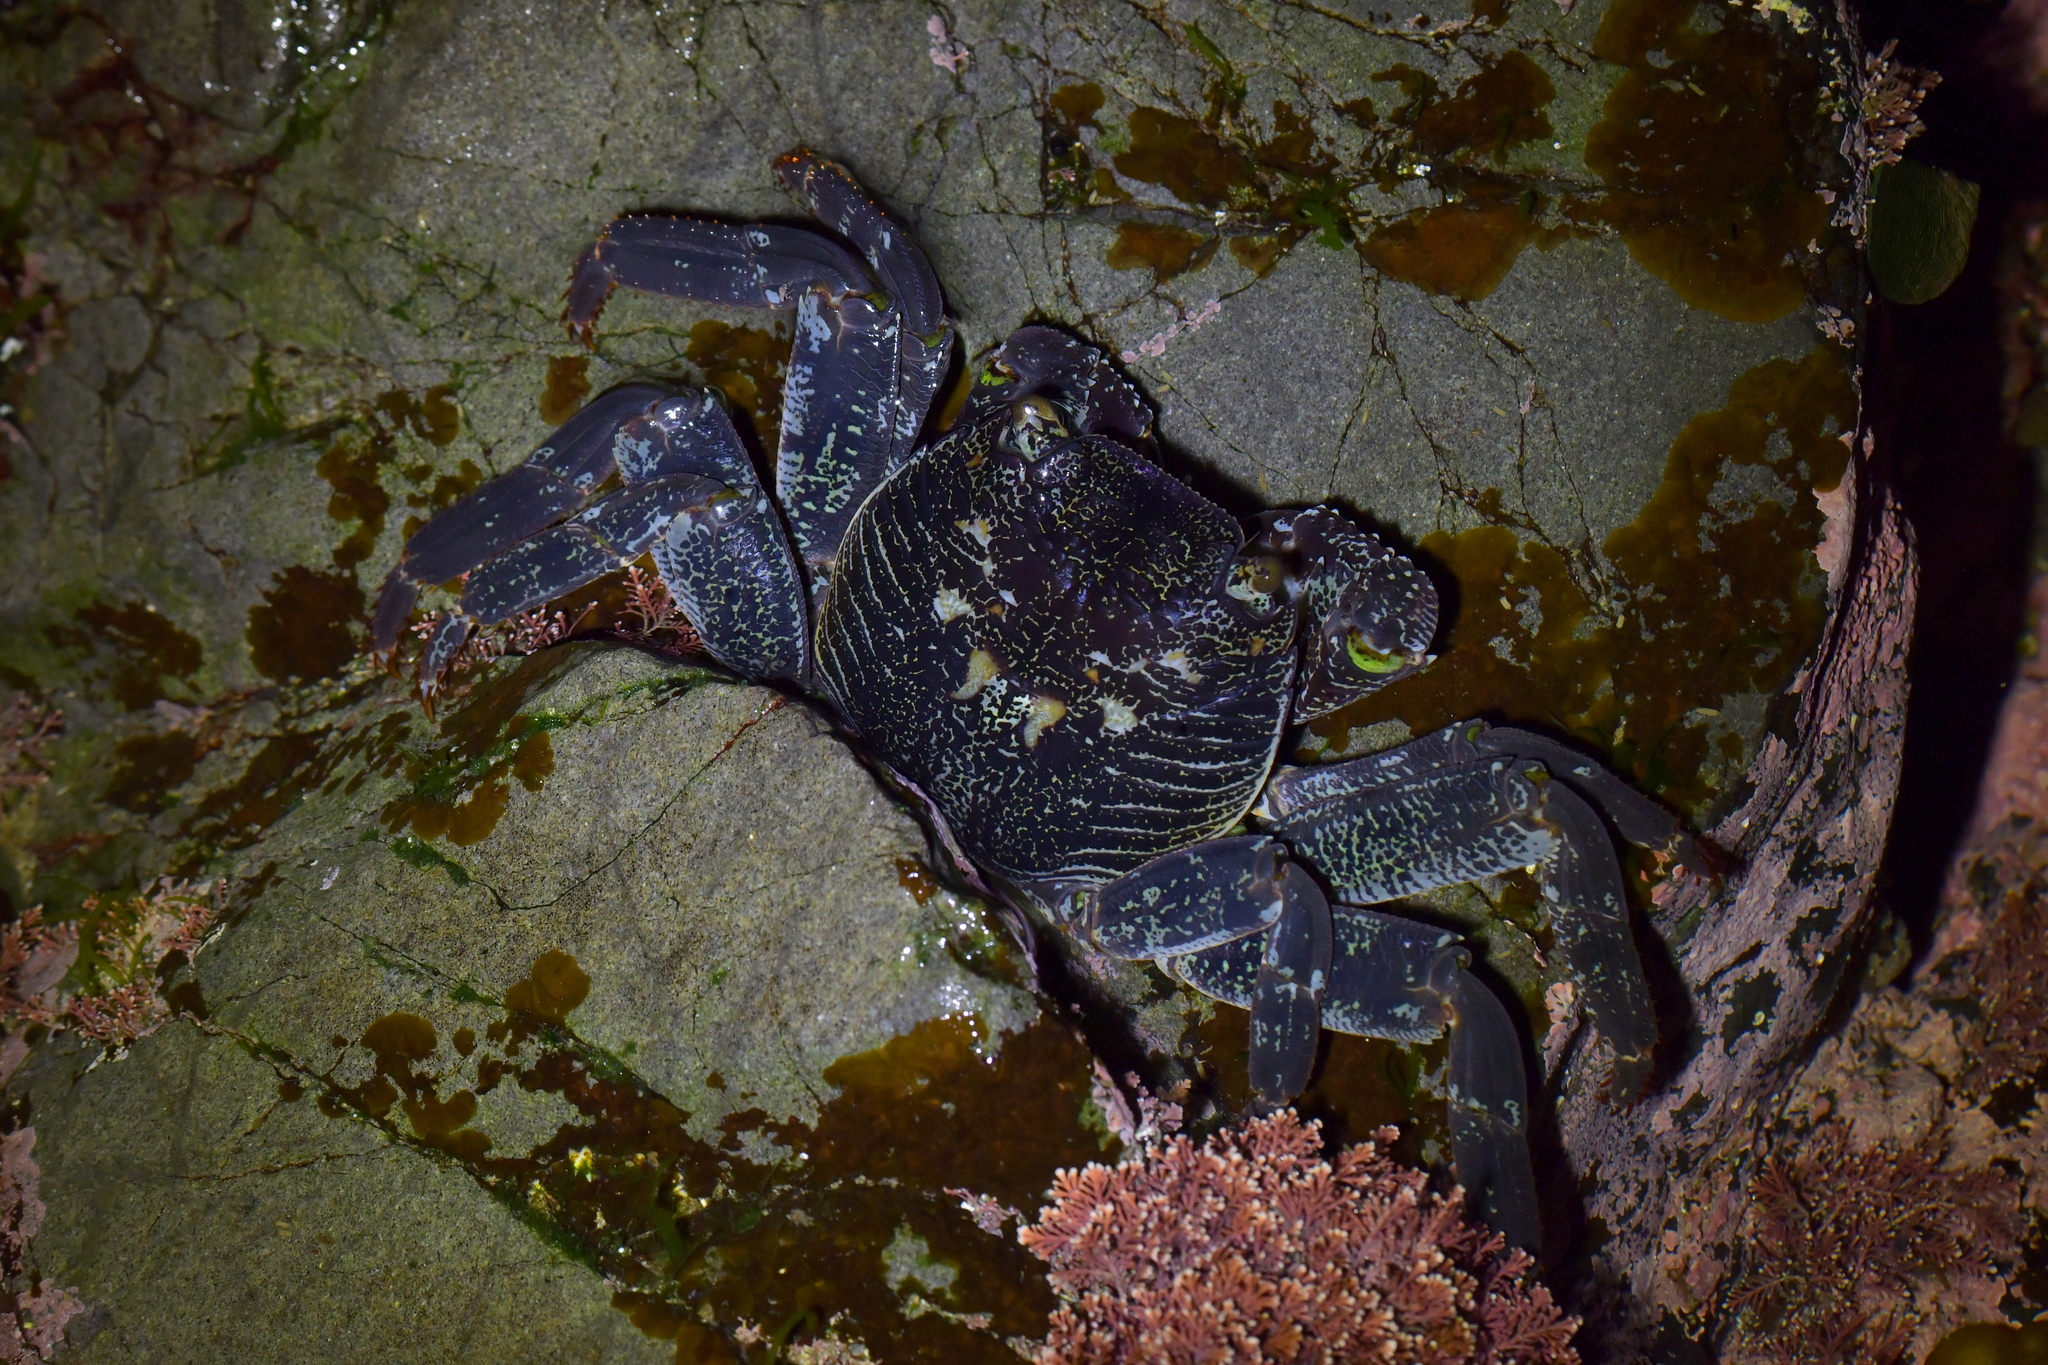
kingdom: Animalia
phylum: Arthropoda
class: Malacostraca
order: Decapoda
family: Grapsidae
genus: Leptograpsus
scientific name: Leptograpsus variegatus
